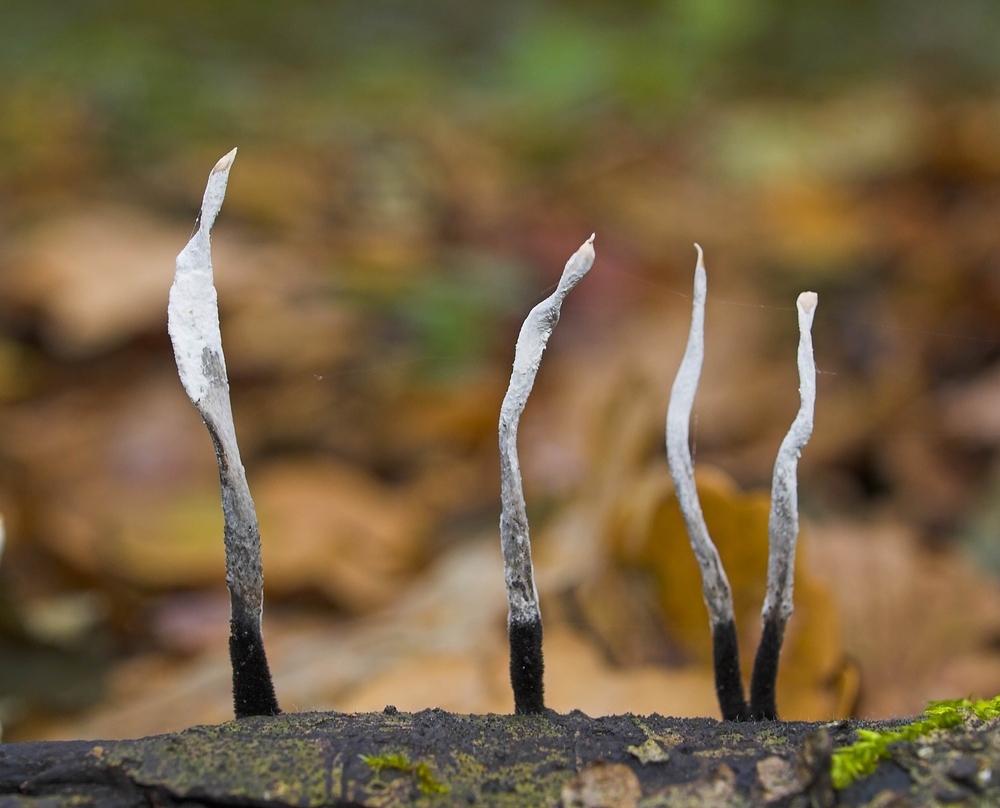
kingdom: Fungi
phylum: Ascomycota
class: Sordariomycetes
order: Xylariales
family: Xylariaceae
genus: Xylaria
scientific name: Xylaria hypoxylon
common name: Candle-snuff fungus
